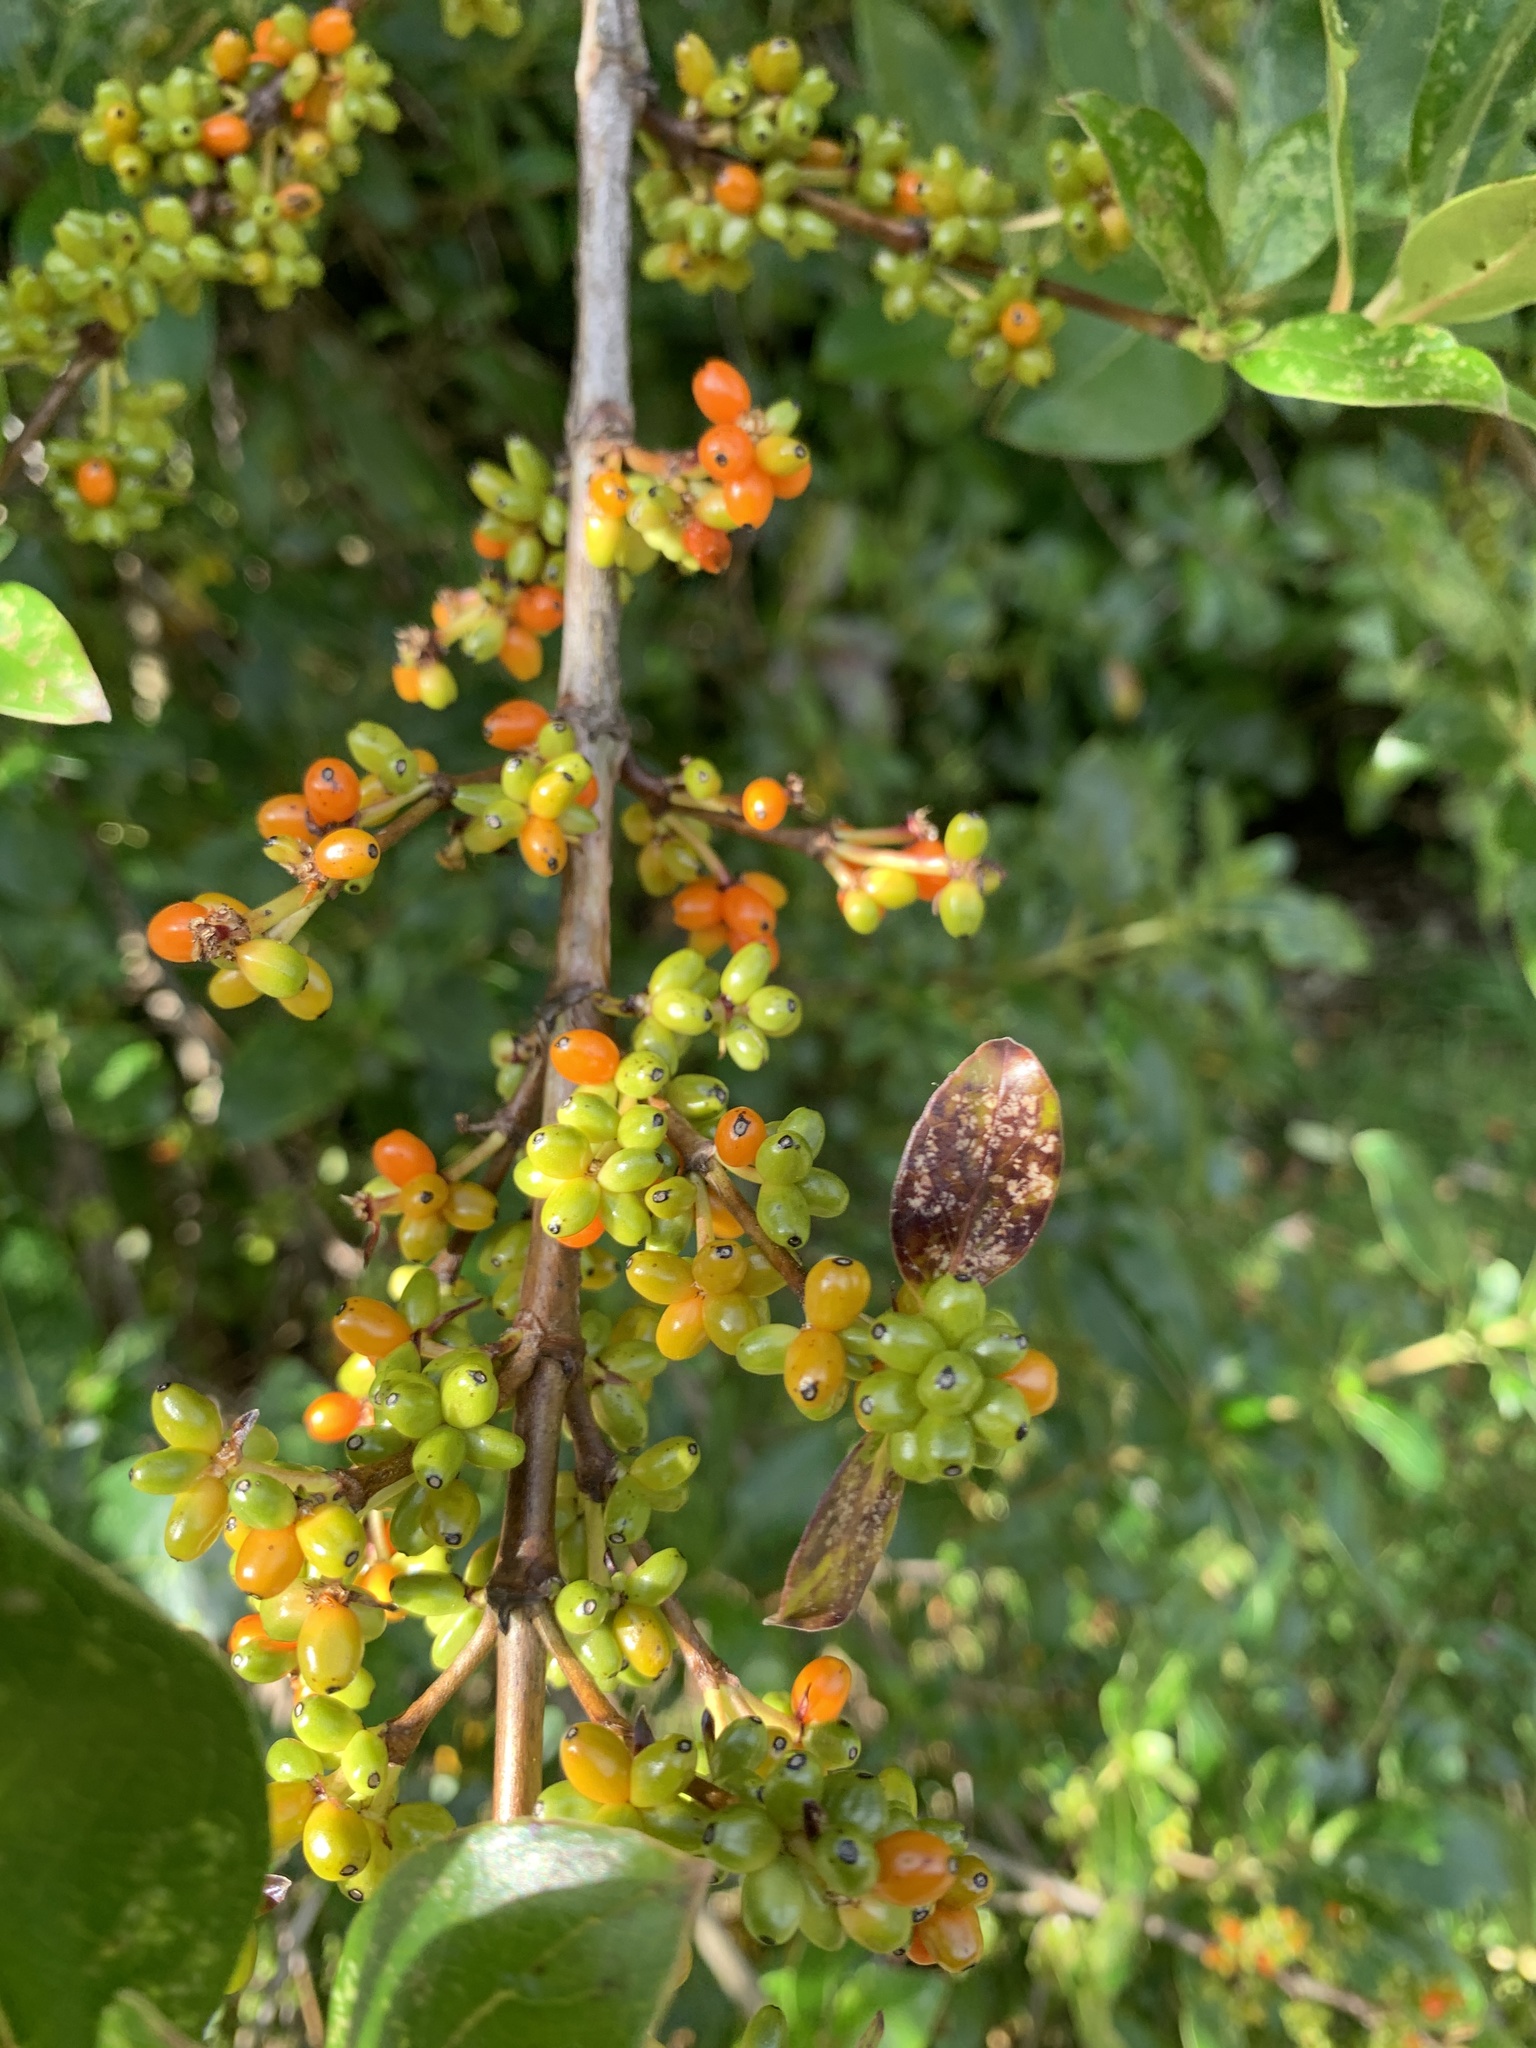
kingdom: Plantae
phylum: Tracheophyta
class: Magnoliopsida
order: Gentianales
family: Rubiaceae
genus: Coprosma
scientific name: Coprosma robusta
